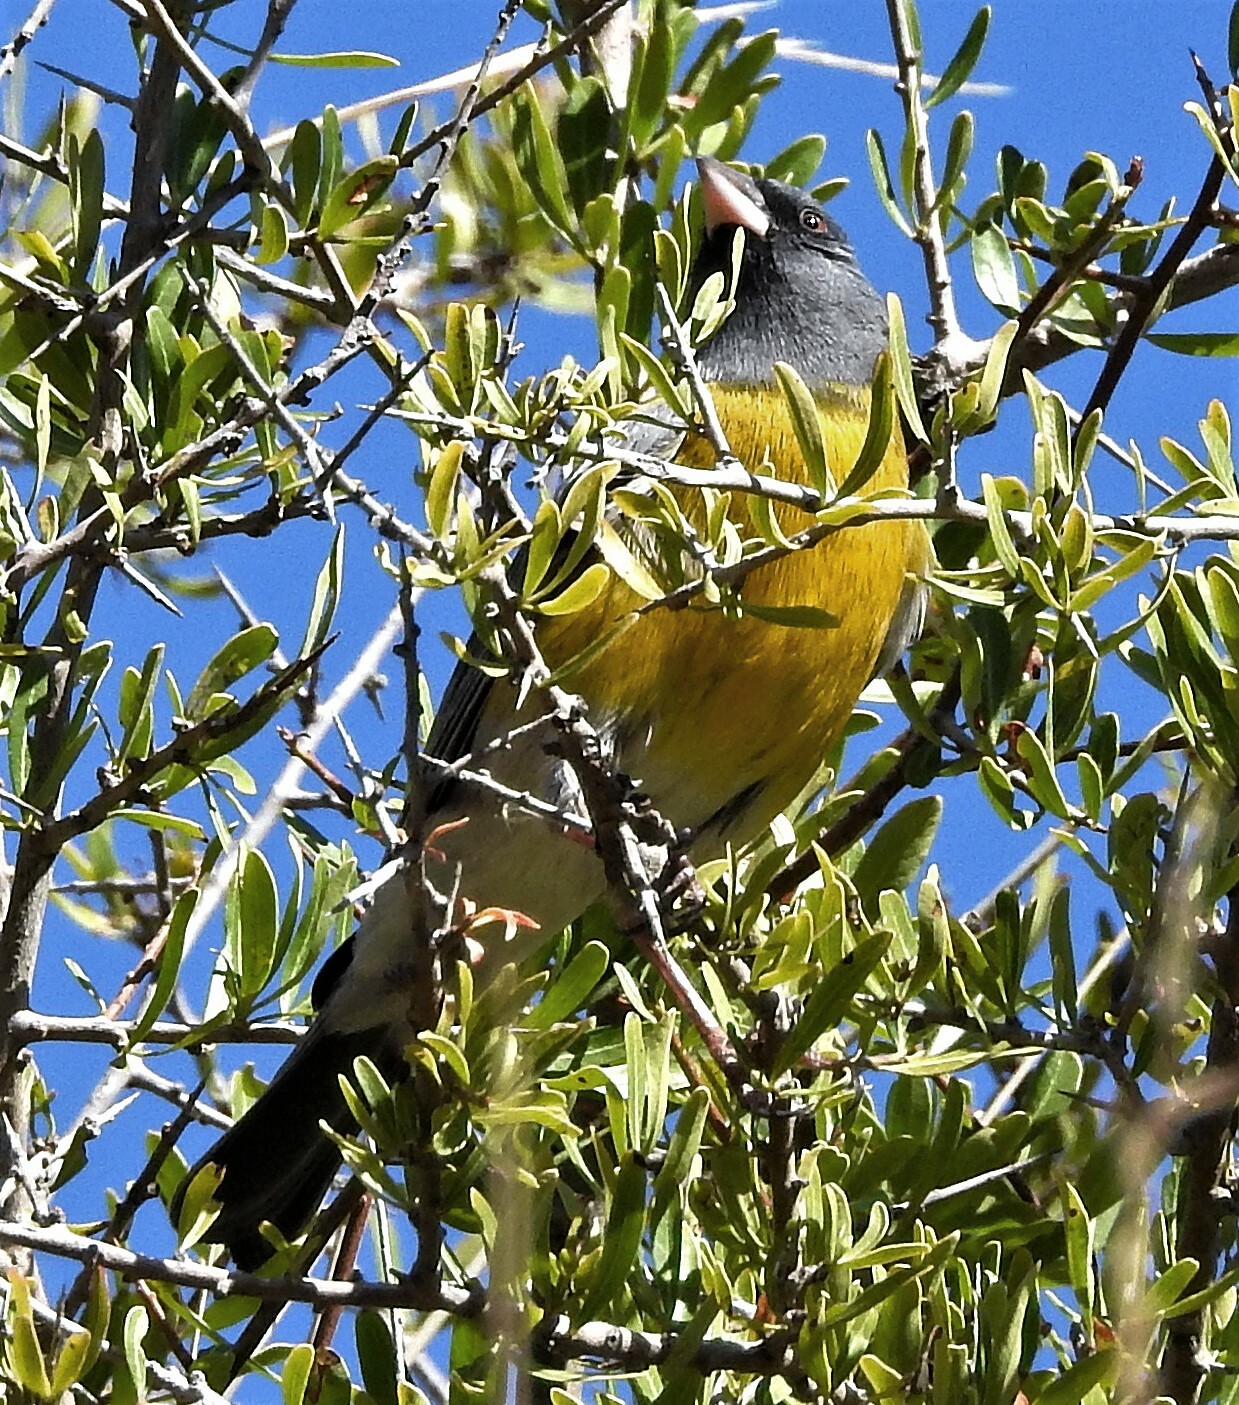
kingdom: Animalia
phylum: Chordata
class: Aves
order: Passeriformes
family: Thraupidae
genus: Phrygilus
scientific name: Phrygilus gayi
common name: Grey-hooded sierra finch
